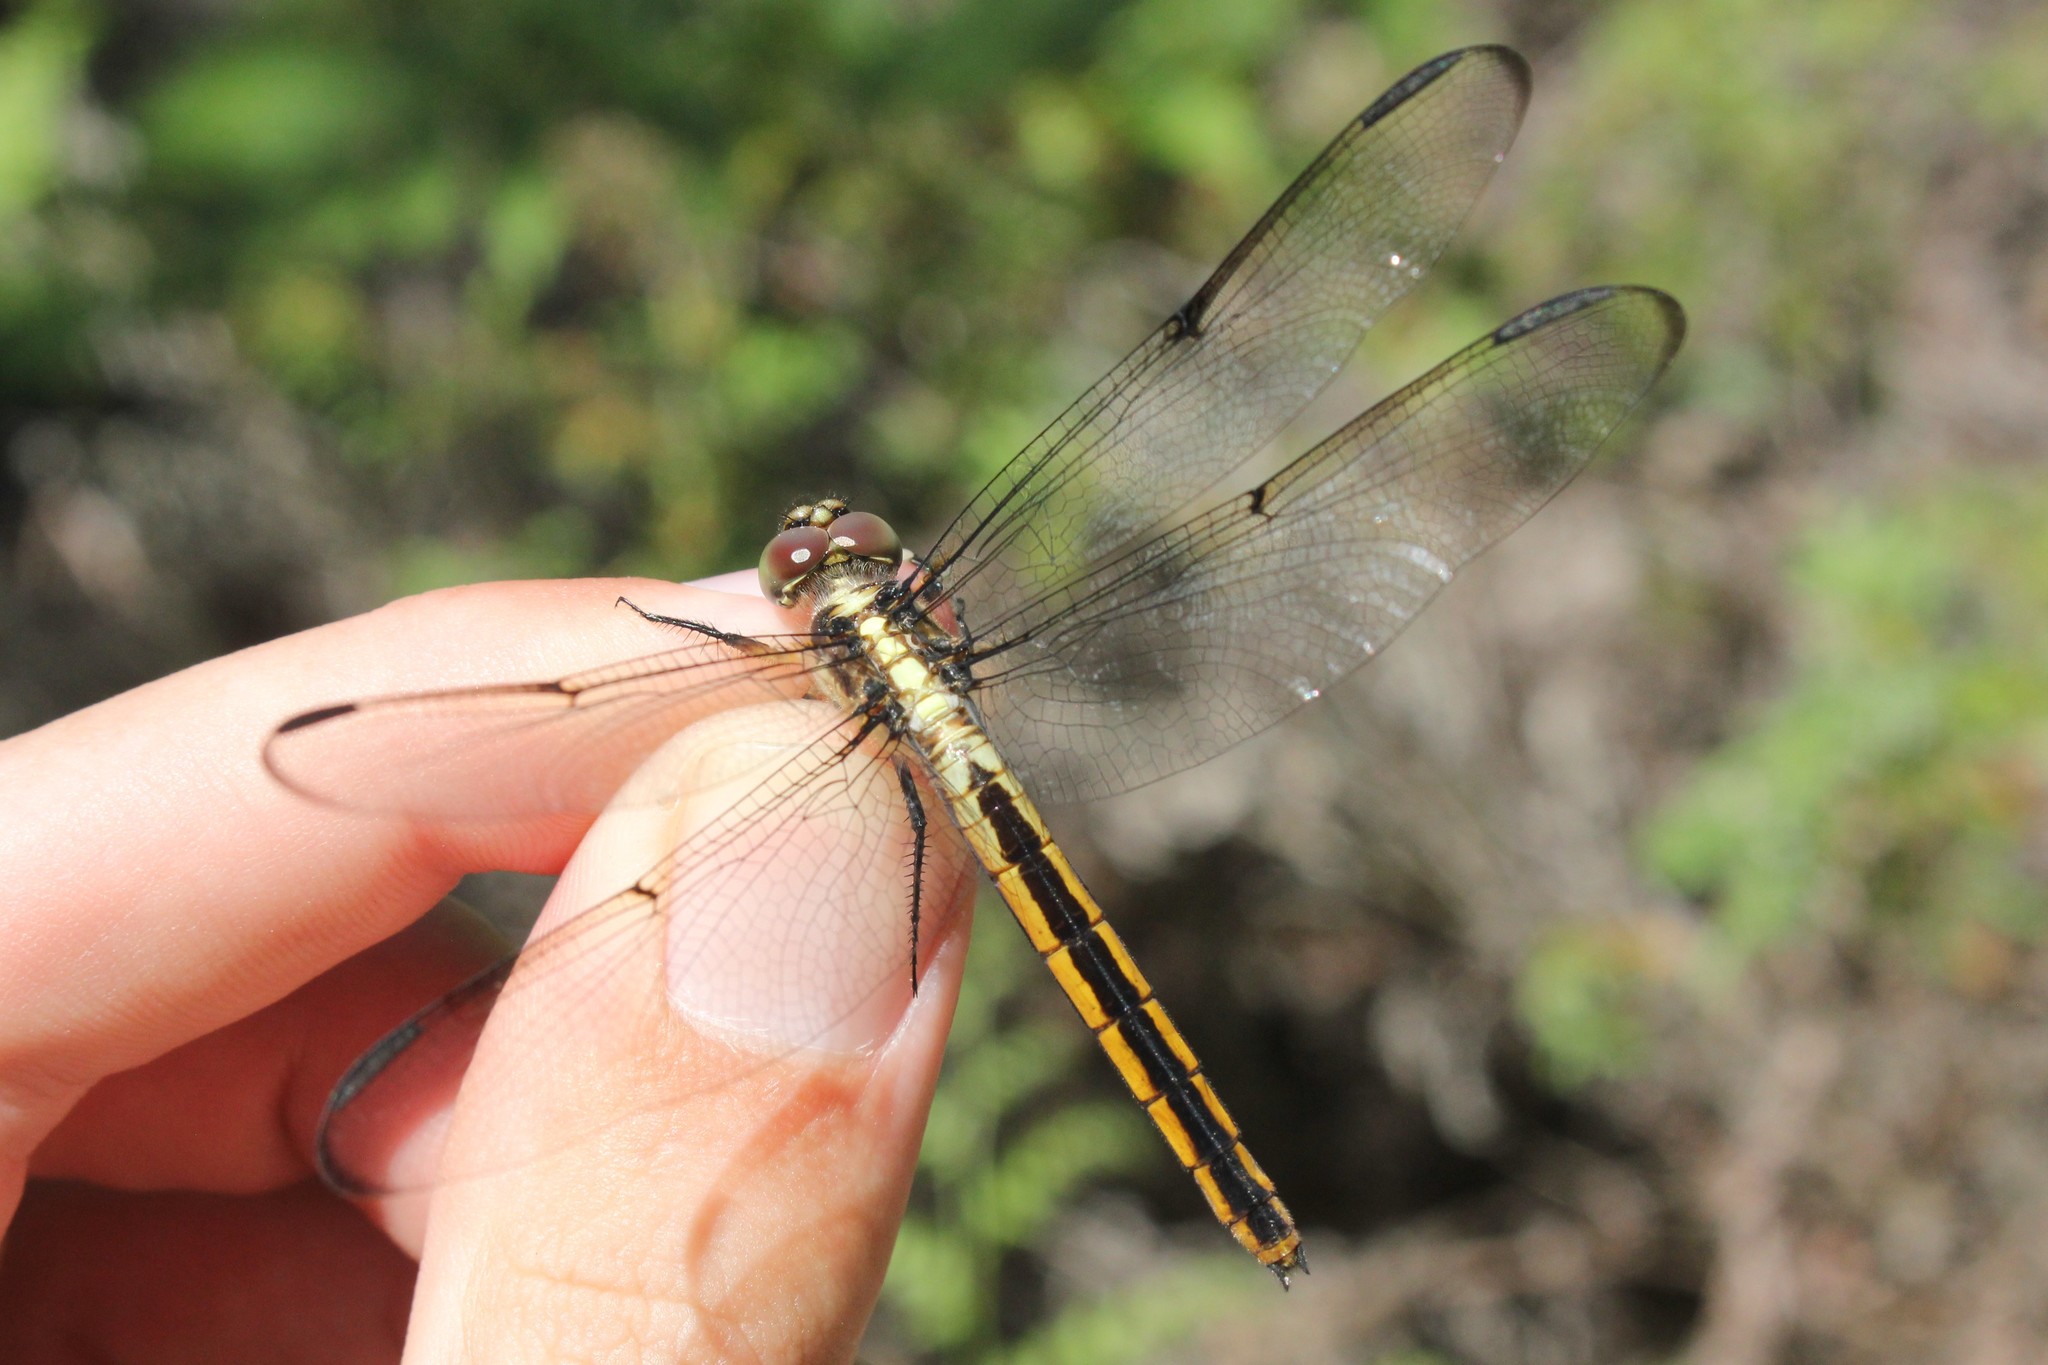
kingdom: Animalia
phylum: Arthropoda
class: Insecta
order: Odonata
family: Libellulidae
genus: Libellula
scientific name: Libellula incesta
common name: Slaty skimmer
